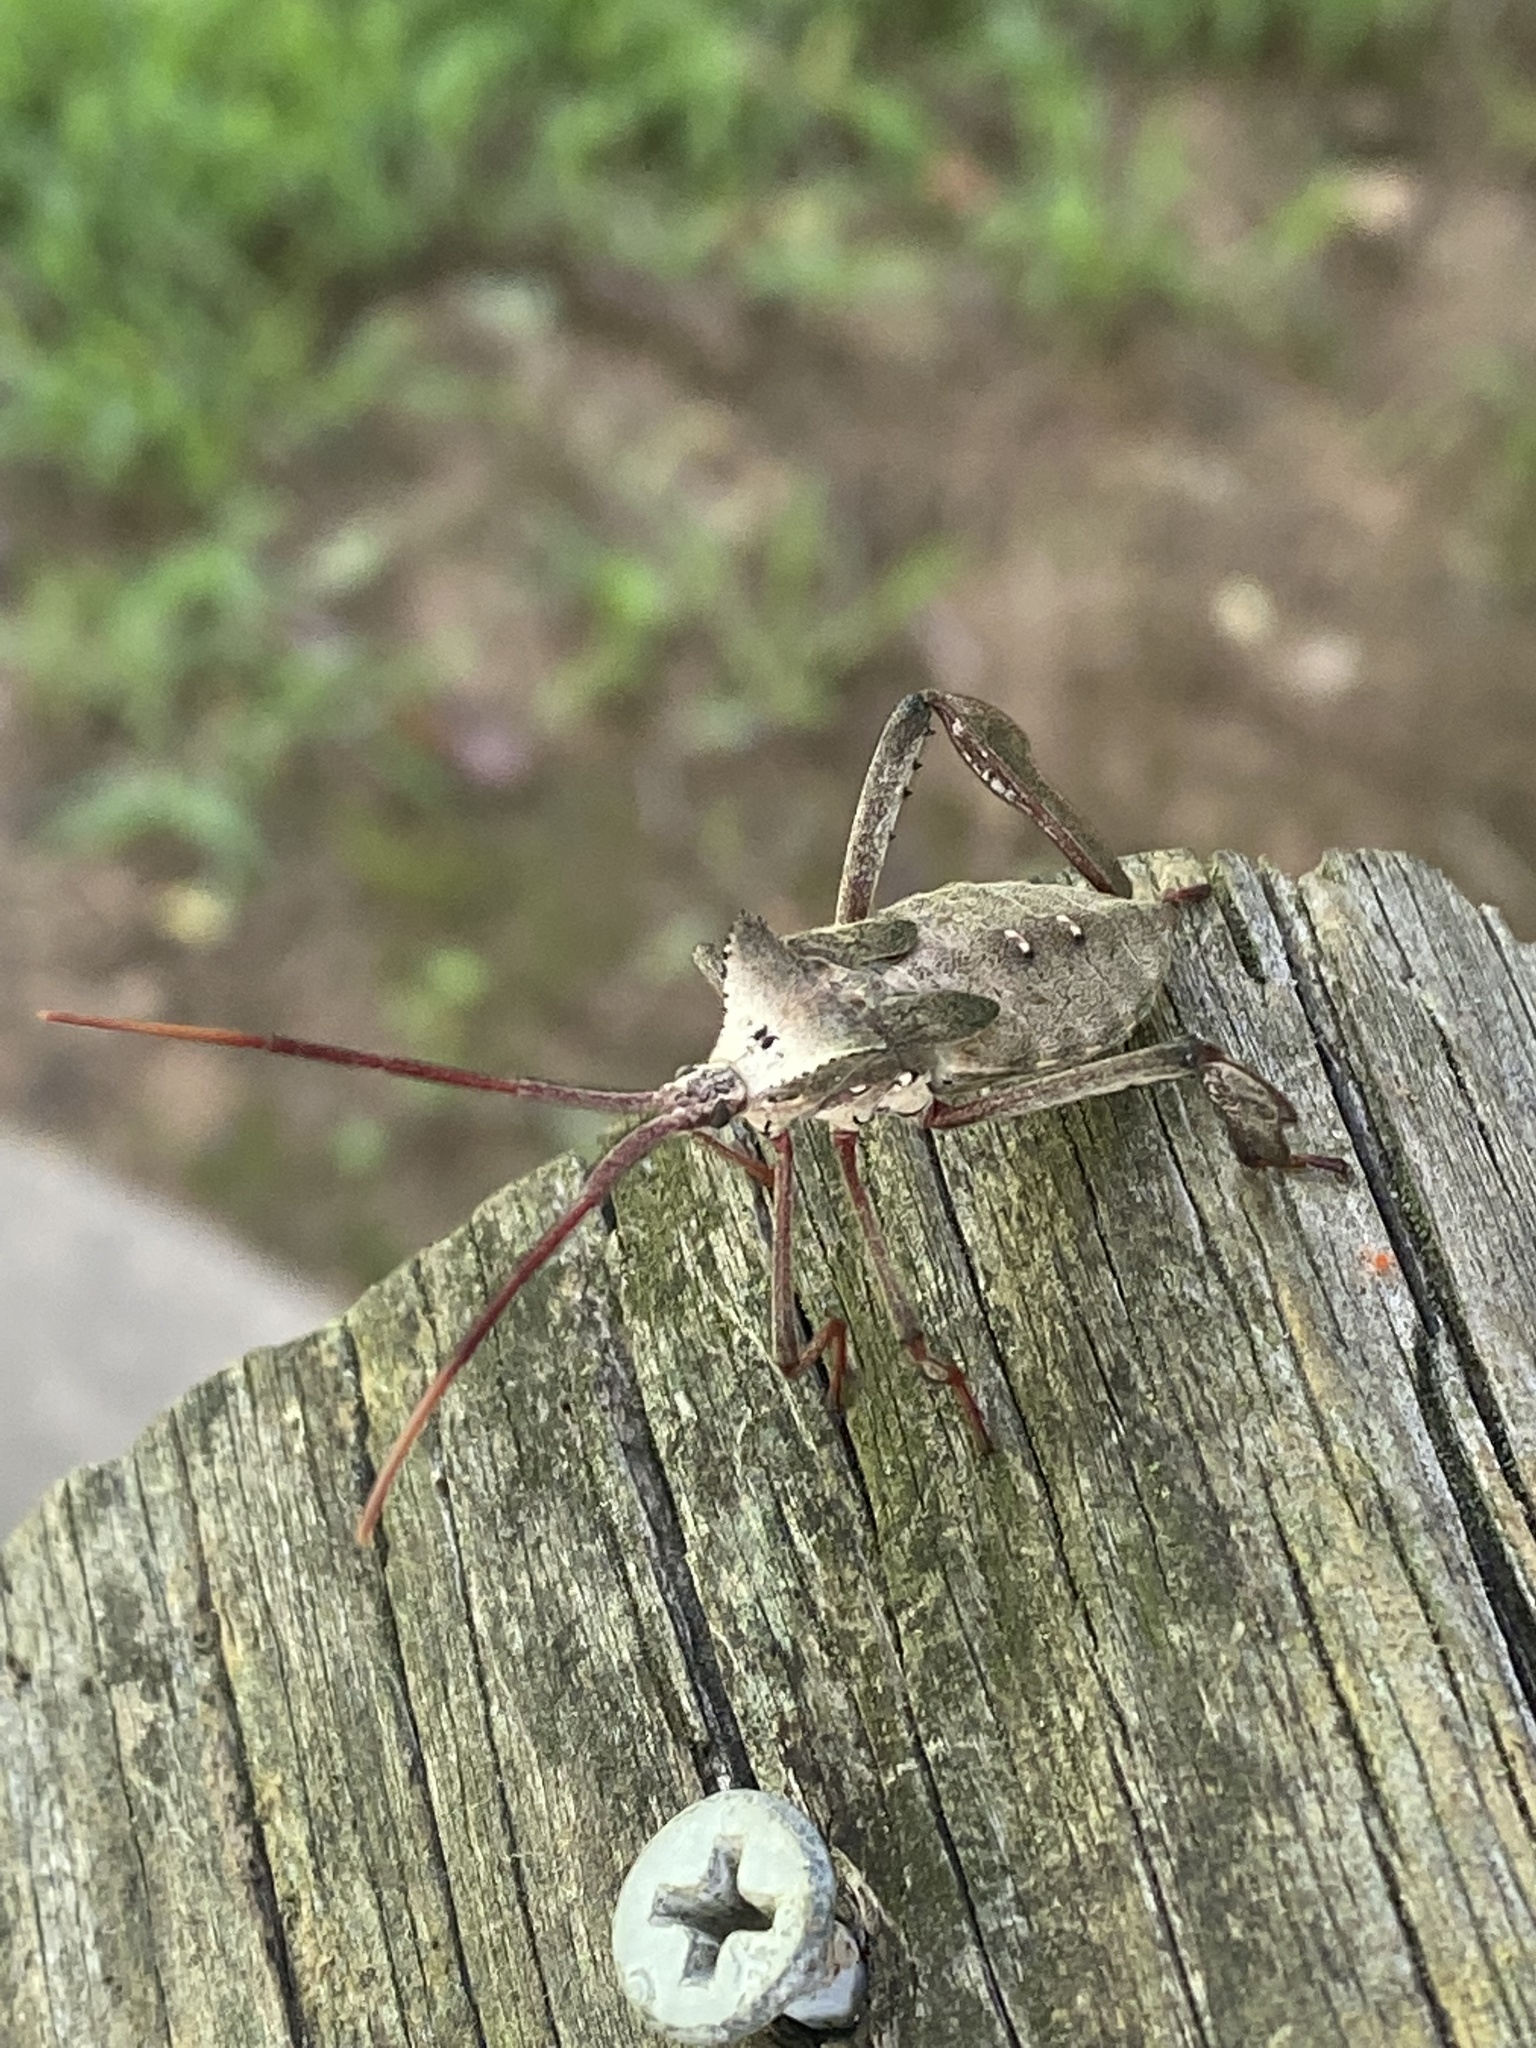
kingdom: Animalia
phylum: Arthropoda
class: Insecta
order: Hemiptera
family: Coreidae
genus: Acanthocephala
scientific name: Acanthocephala declivis
